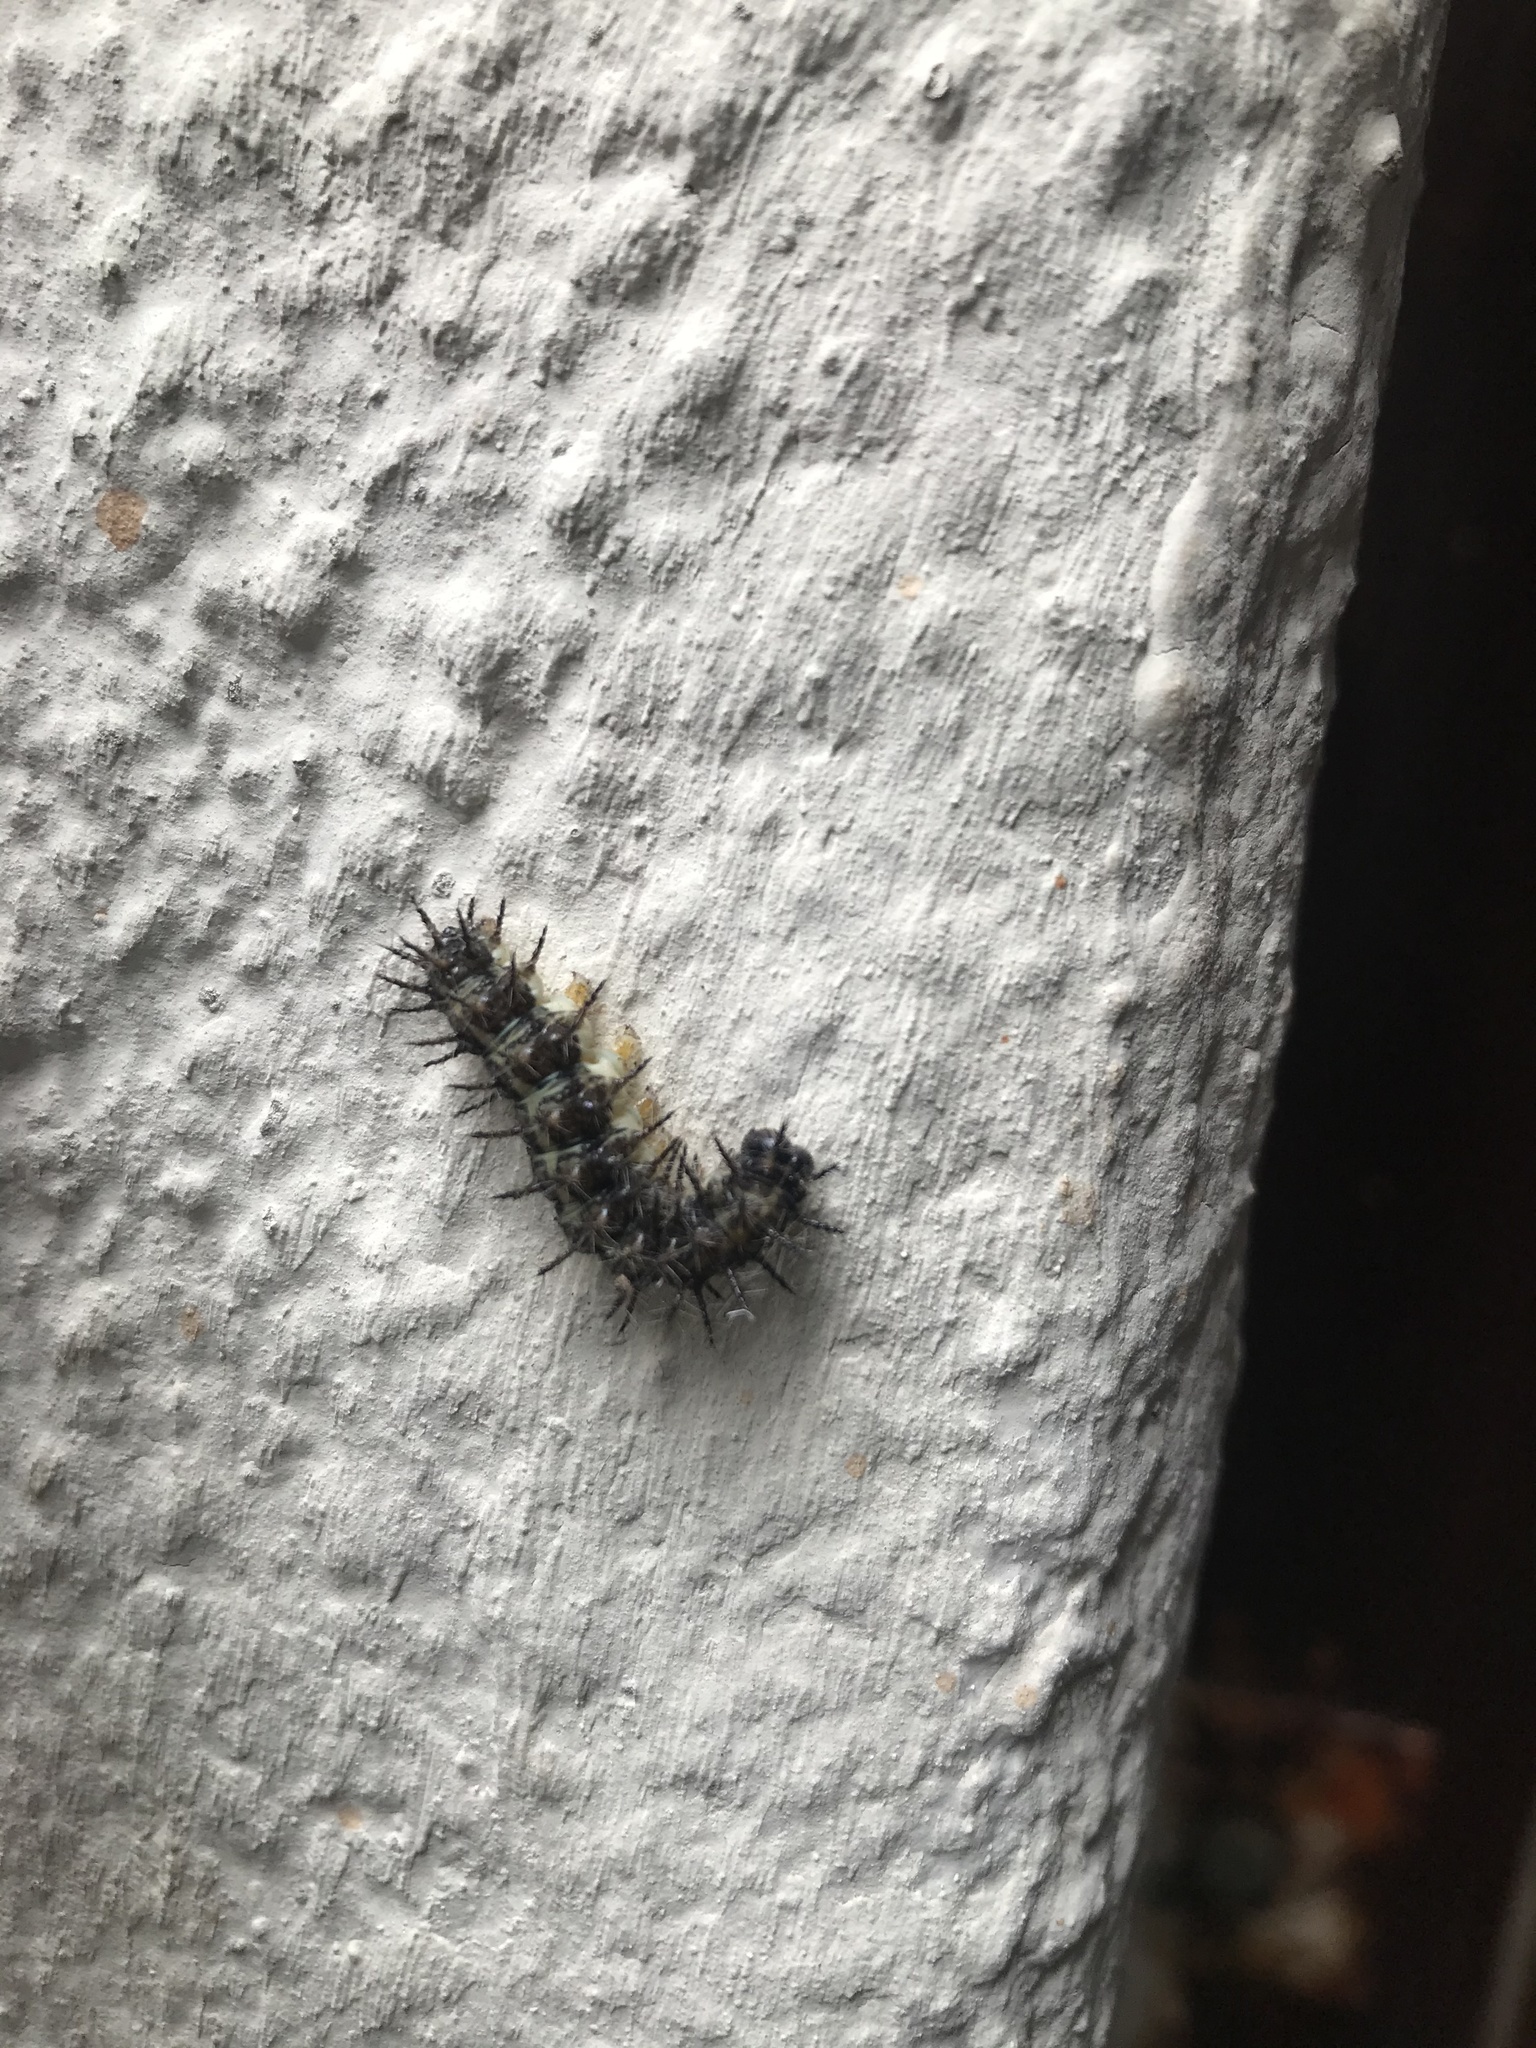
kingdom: Animalia
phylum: Arthropoda
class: Insecta
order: Lepidoptera
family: Nymphalidae
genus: Acraea
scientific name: Acraea horta
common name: Garden acraea
